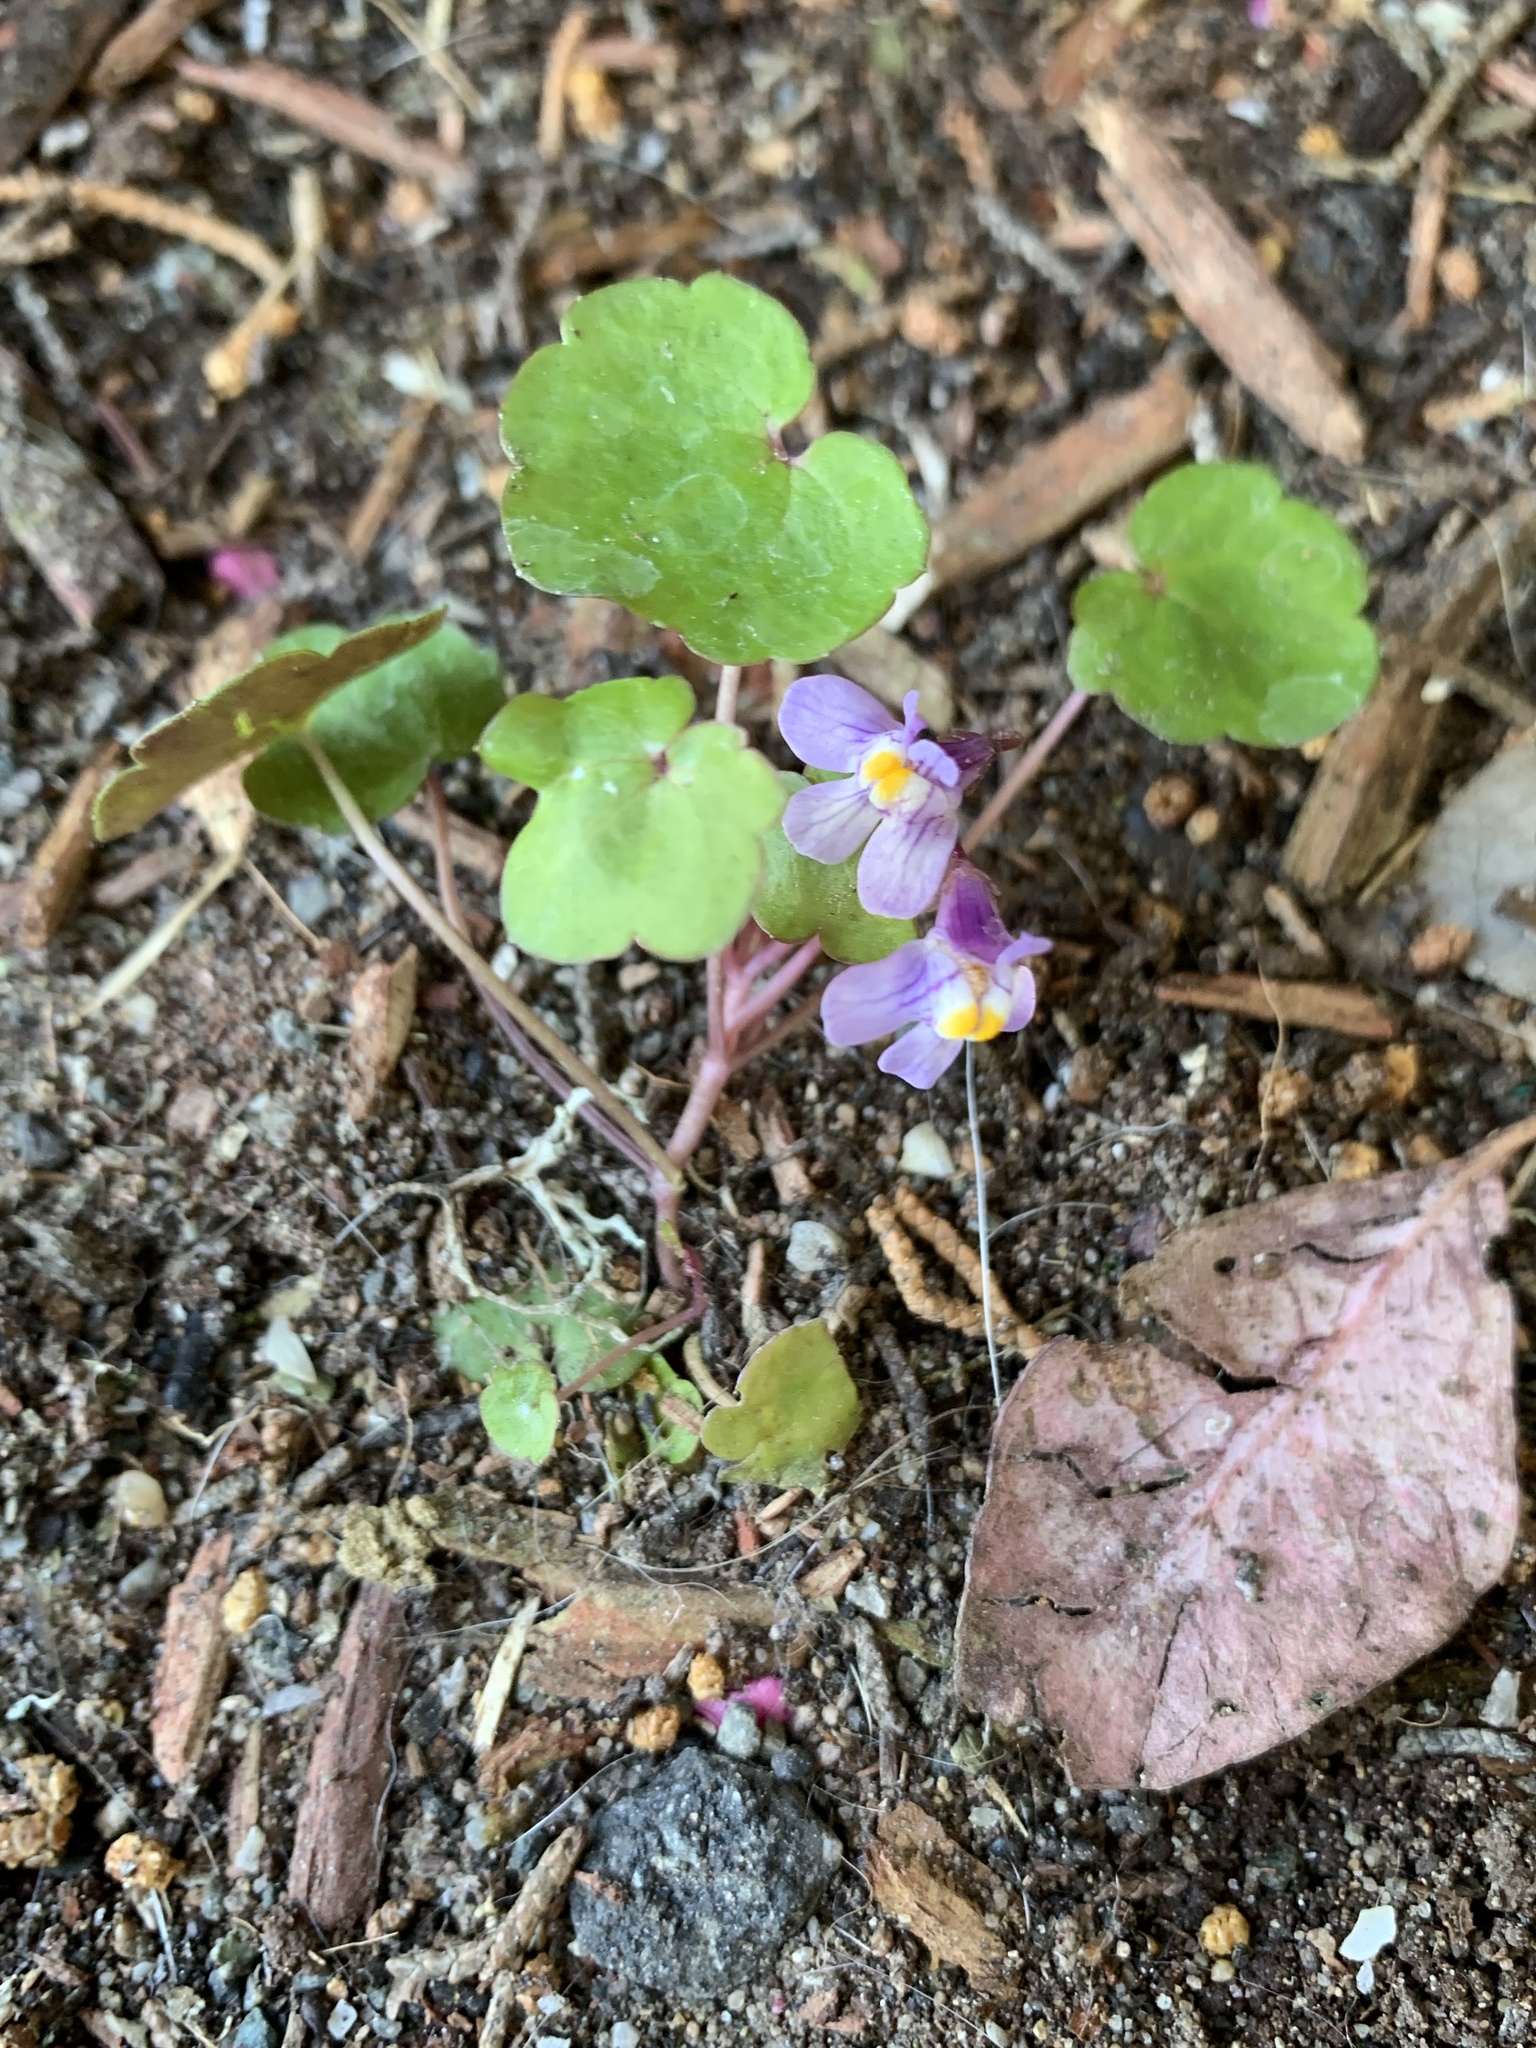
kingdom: Plantae
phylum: Tracheophyta
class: Magnoliopsida
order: Lamiales
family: Plantaginaceae
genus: Cymbalaria
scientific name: Cymbalaria muralis
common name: Ivy-leaved toadflax
